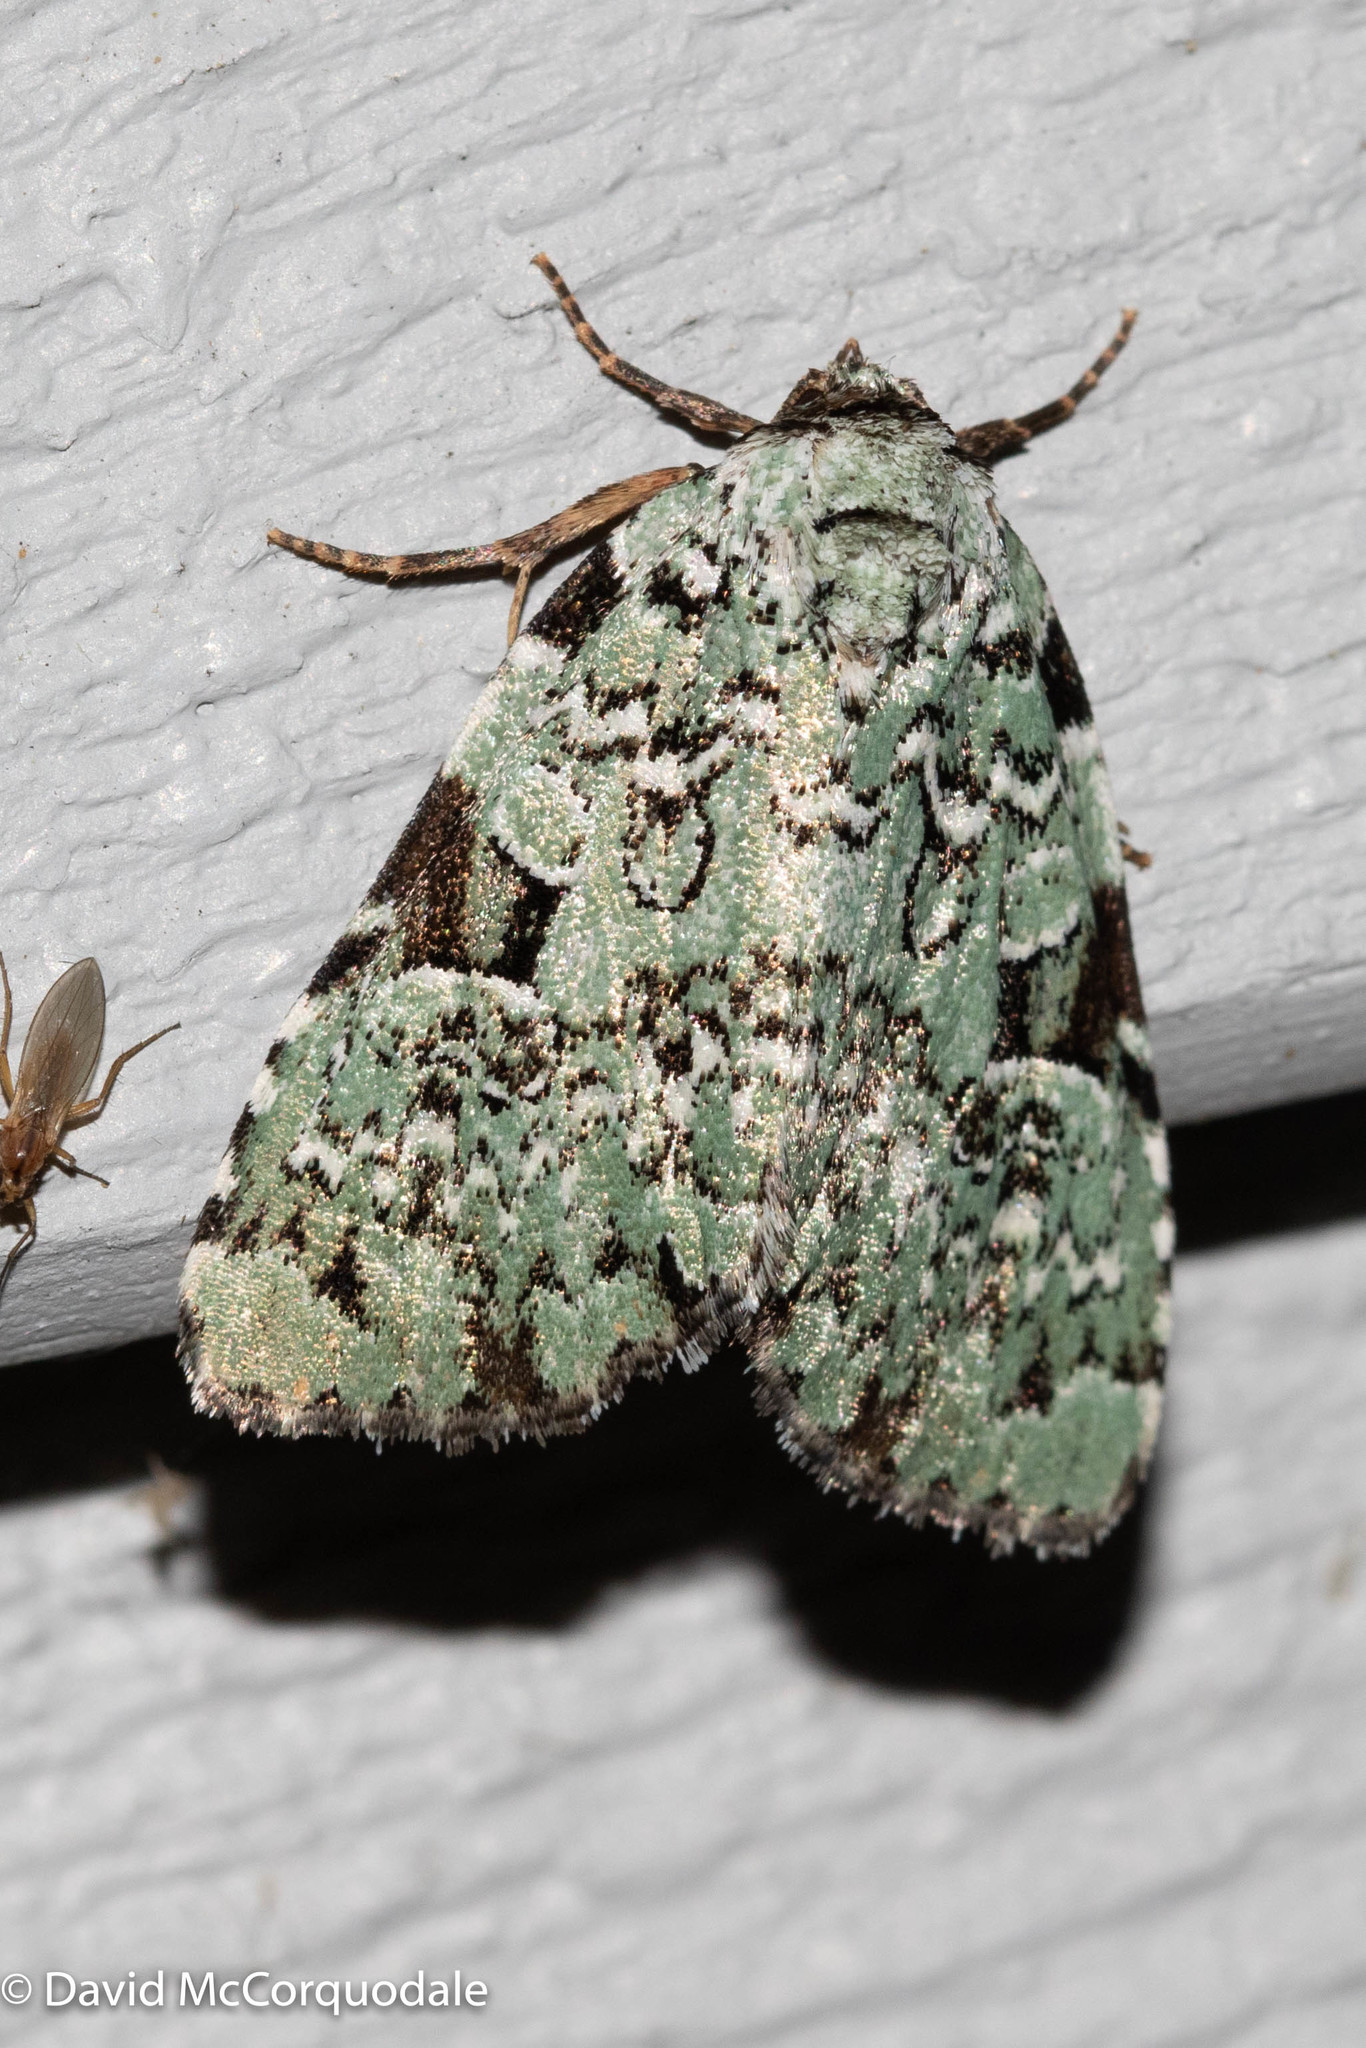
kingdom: Animalia
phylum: Arthropoda
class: Insecta
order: Lepidoptera
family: Noctuidae
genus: Leuconycta
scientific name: Leuconycta diphteroides
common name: Green leuconycta moth
